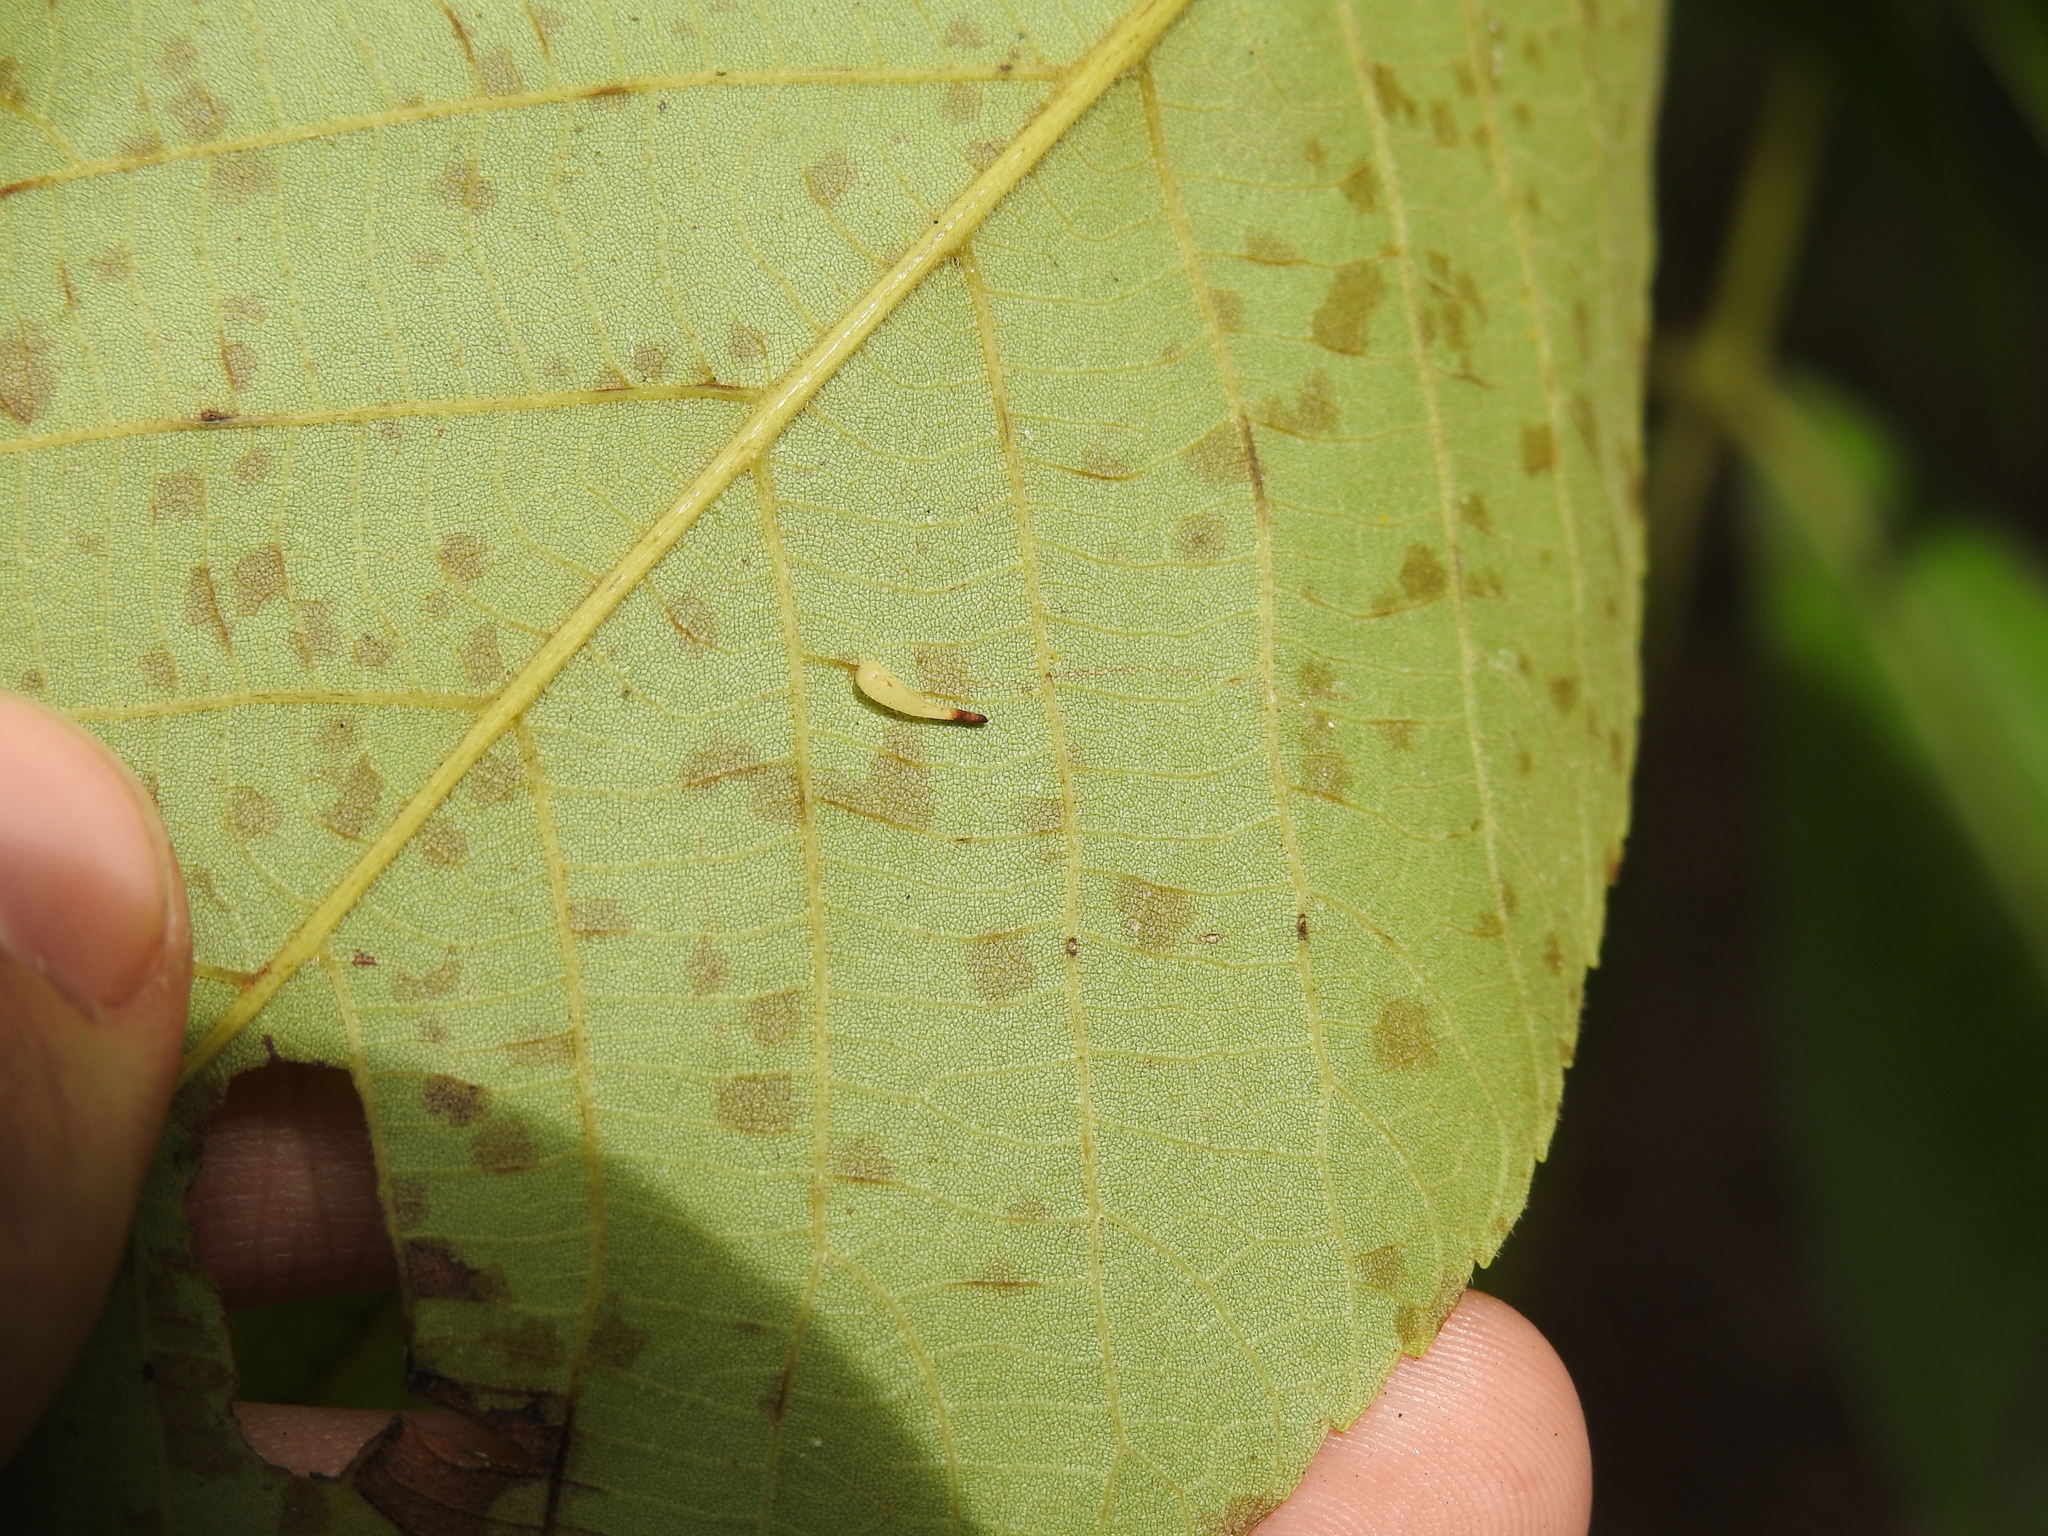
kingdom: Animalia
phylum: Arthropoda
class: Insecta
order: Diptera
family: Cecidomyiidae
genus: Caryomyia
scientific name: Caryomyia
